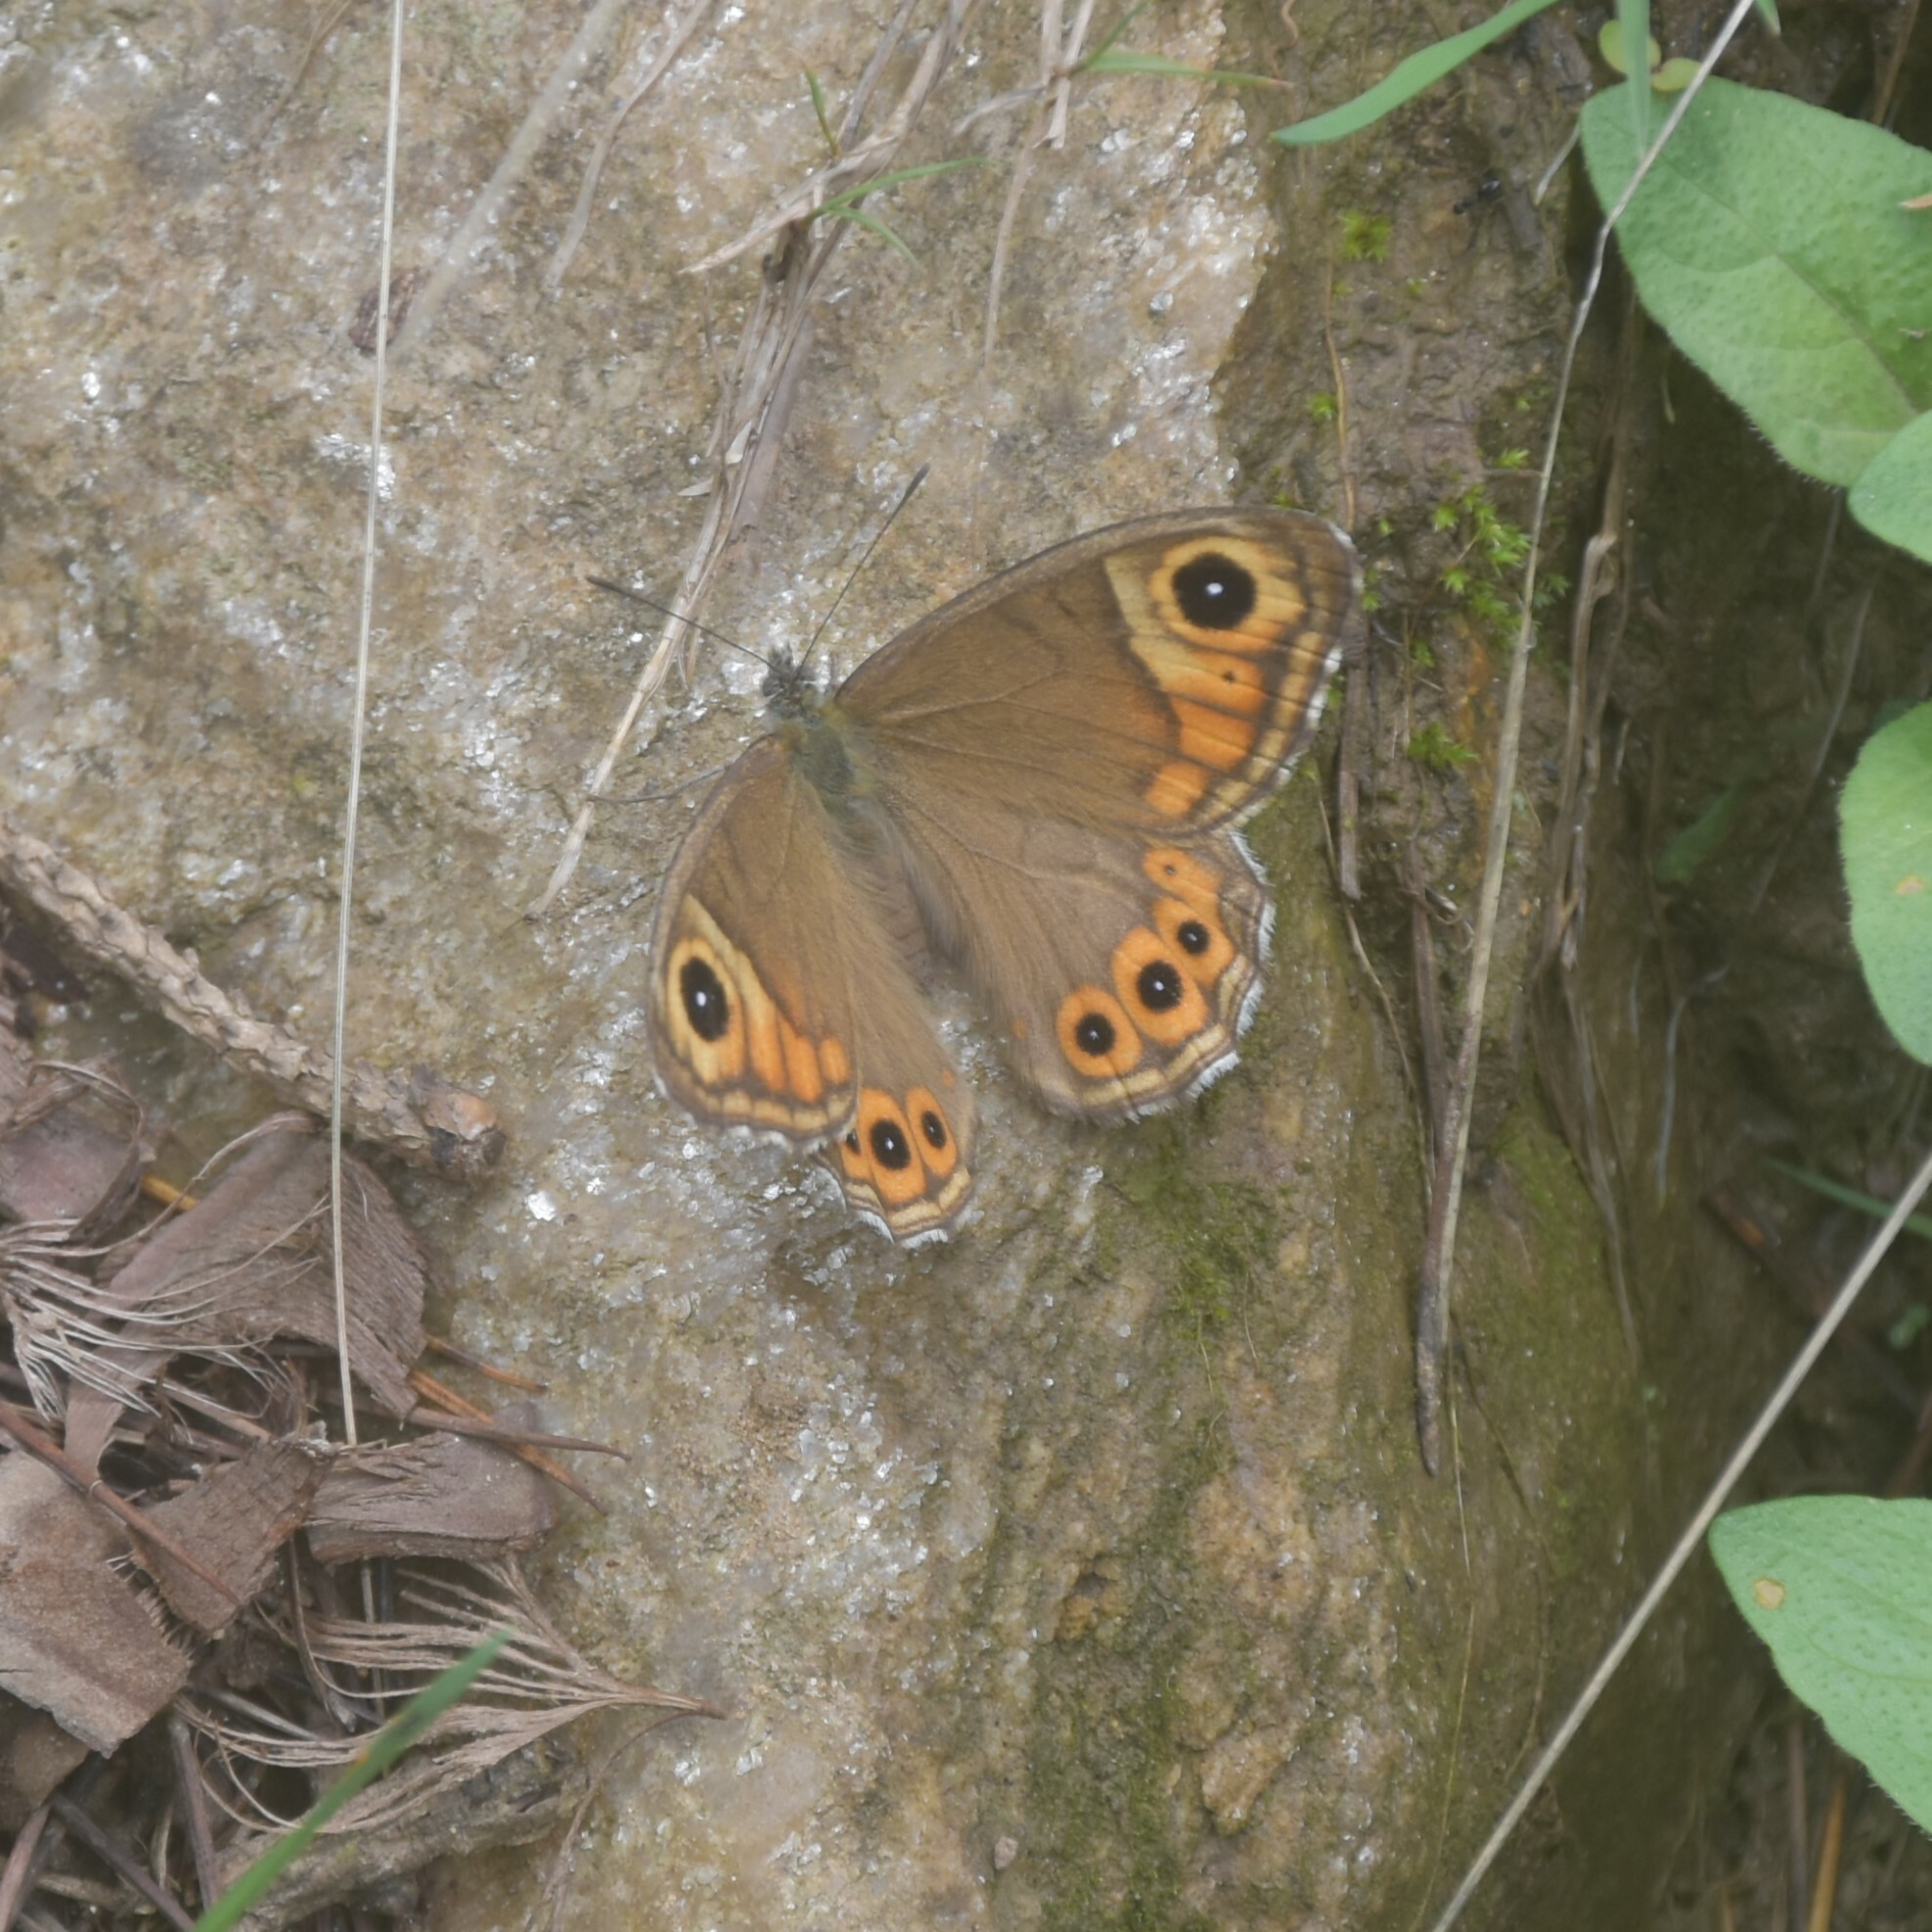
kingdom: Animalia
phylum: Arthropoda
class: Insecta
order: Lepidoptera
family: Nymphalidae
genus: Pararge
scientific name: Pararge Lasiommata schakra
